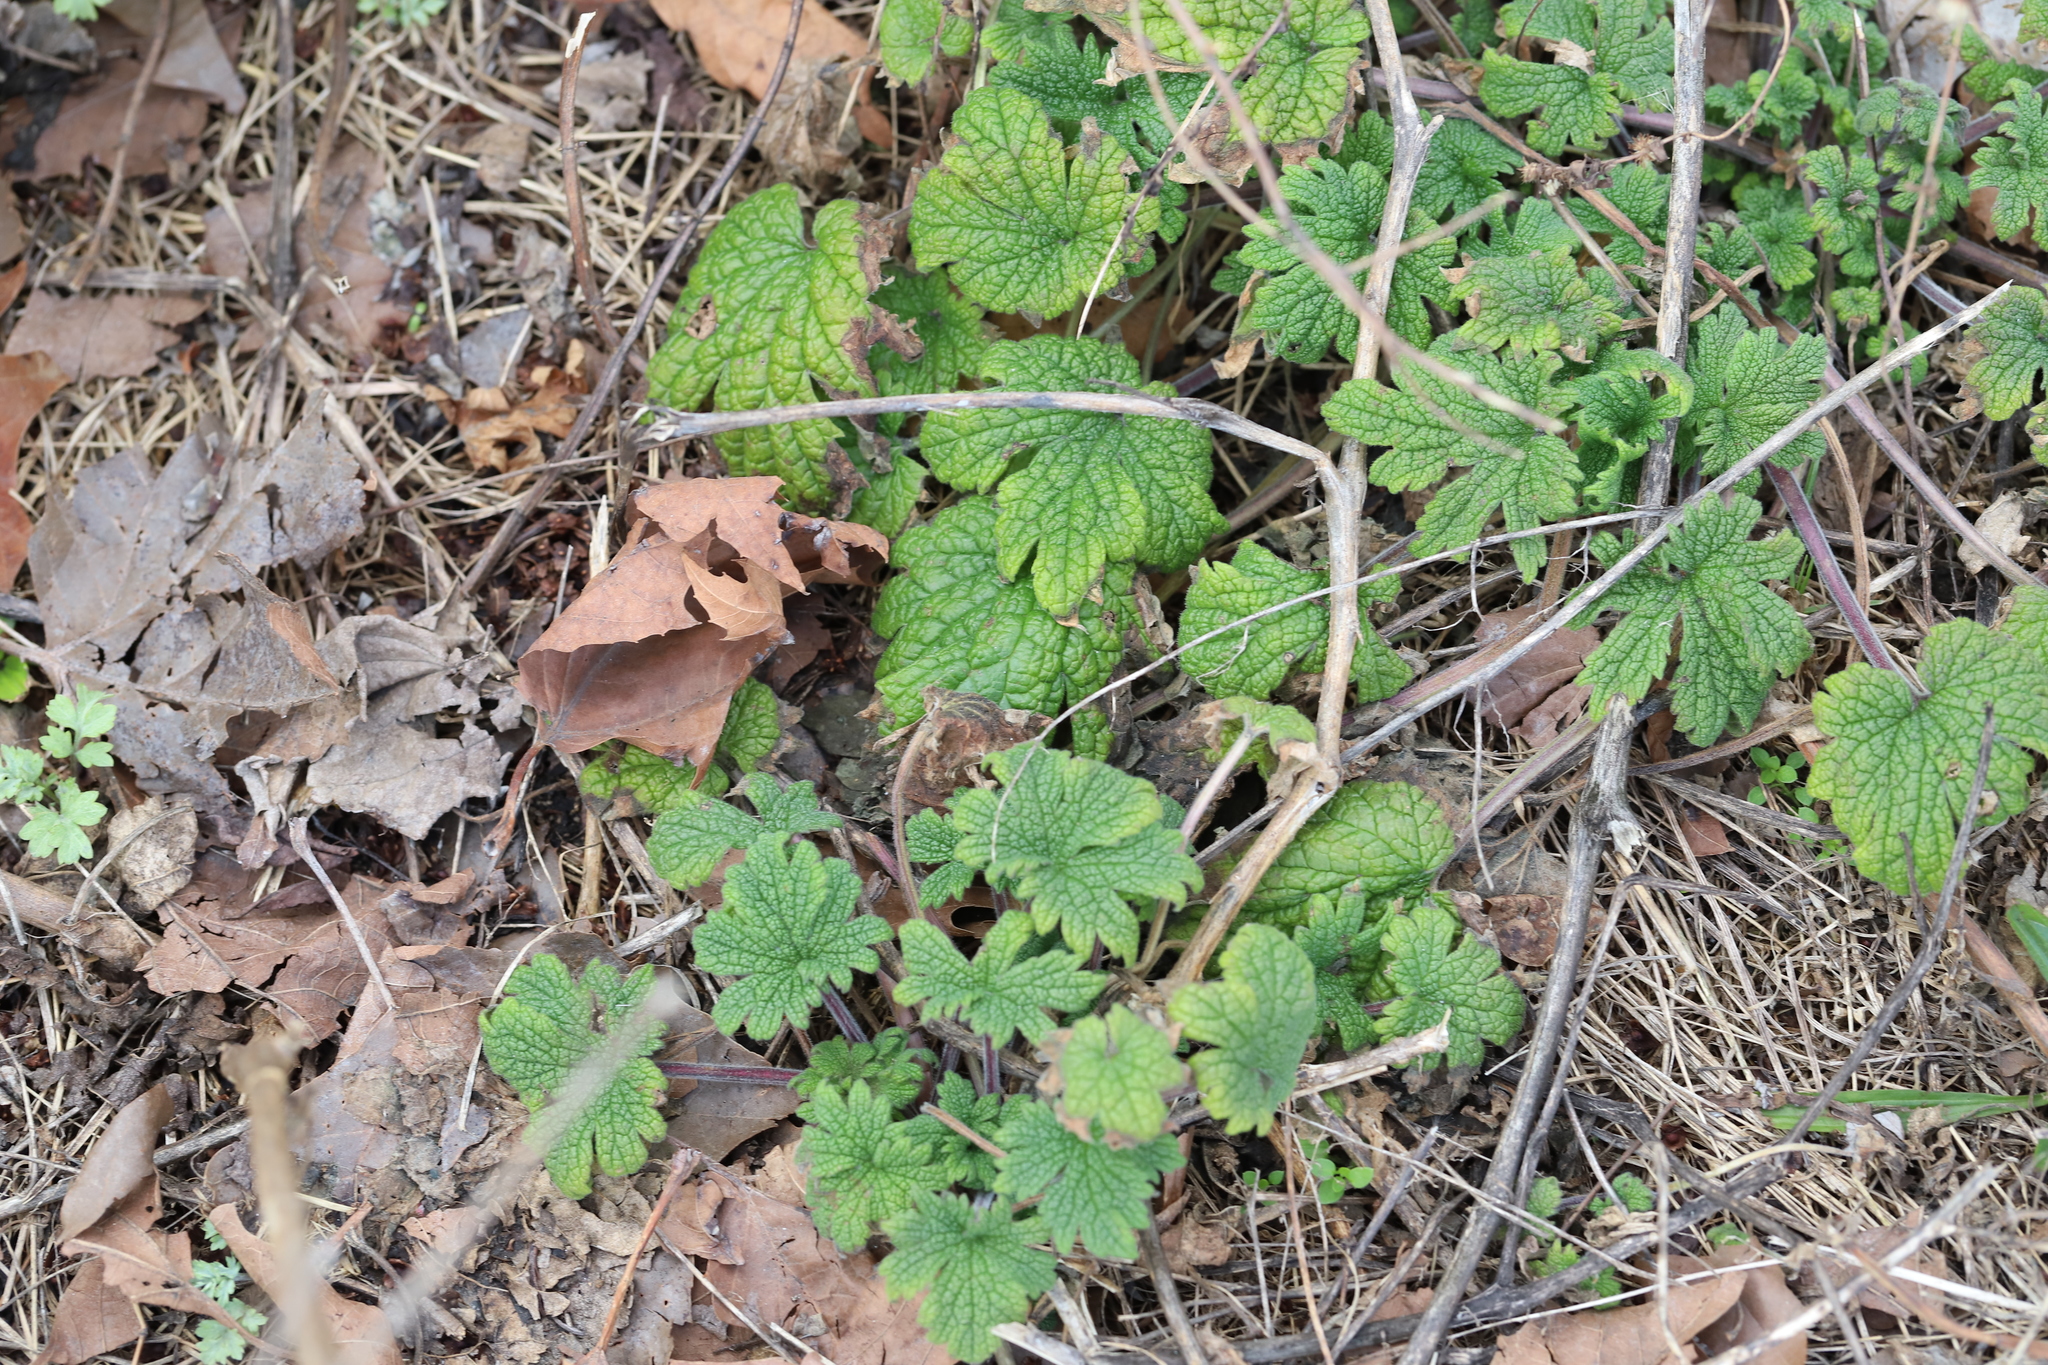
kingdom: Plantae
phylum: Tracheophyta
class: Magnoliopsida
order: Lamiales
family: Lamiaceae
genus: Leonurus
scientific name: Leonurus cardiaca
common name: Motherwort
